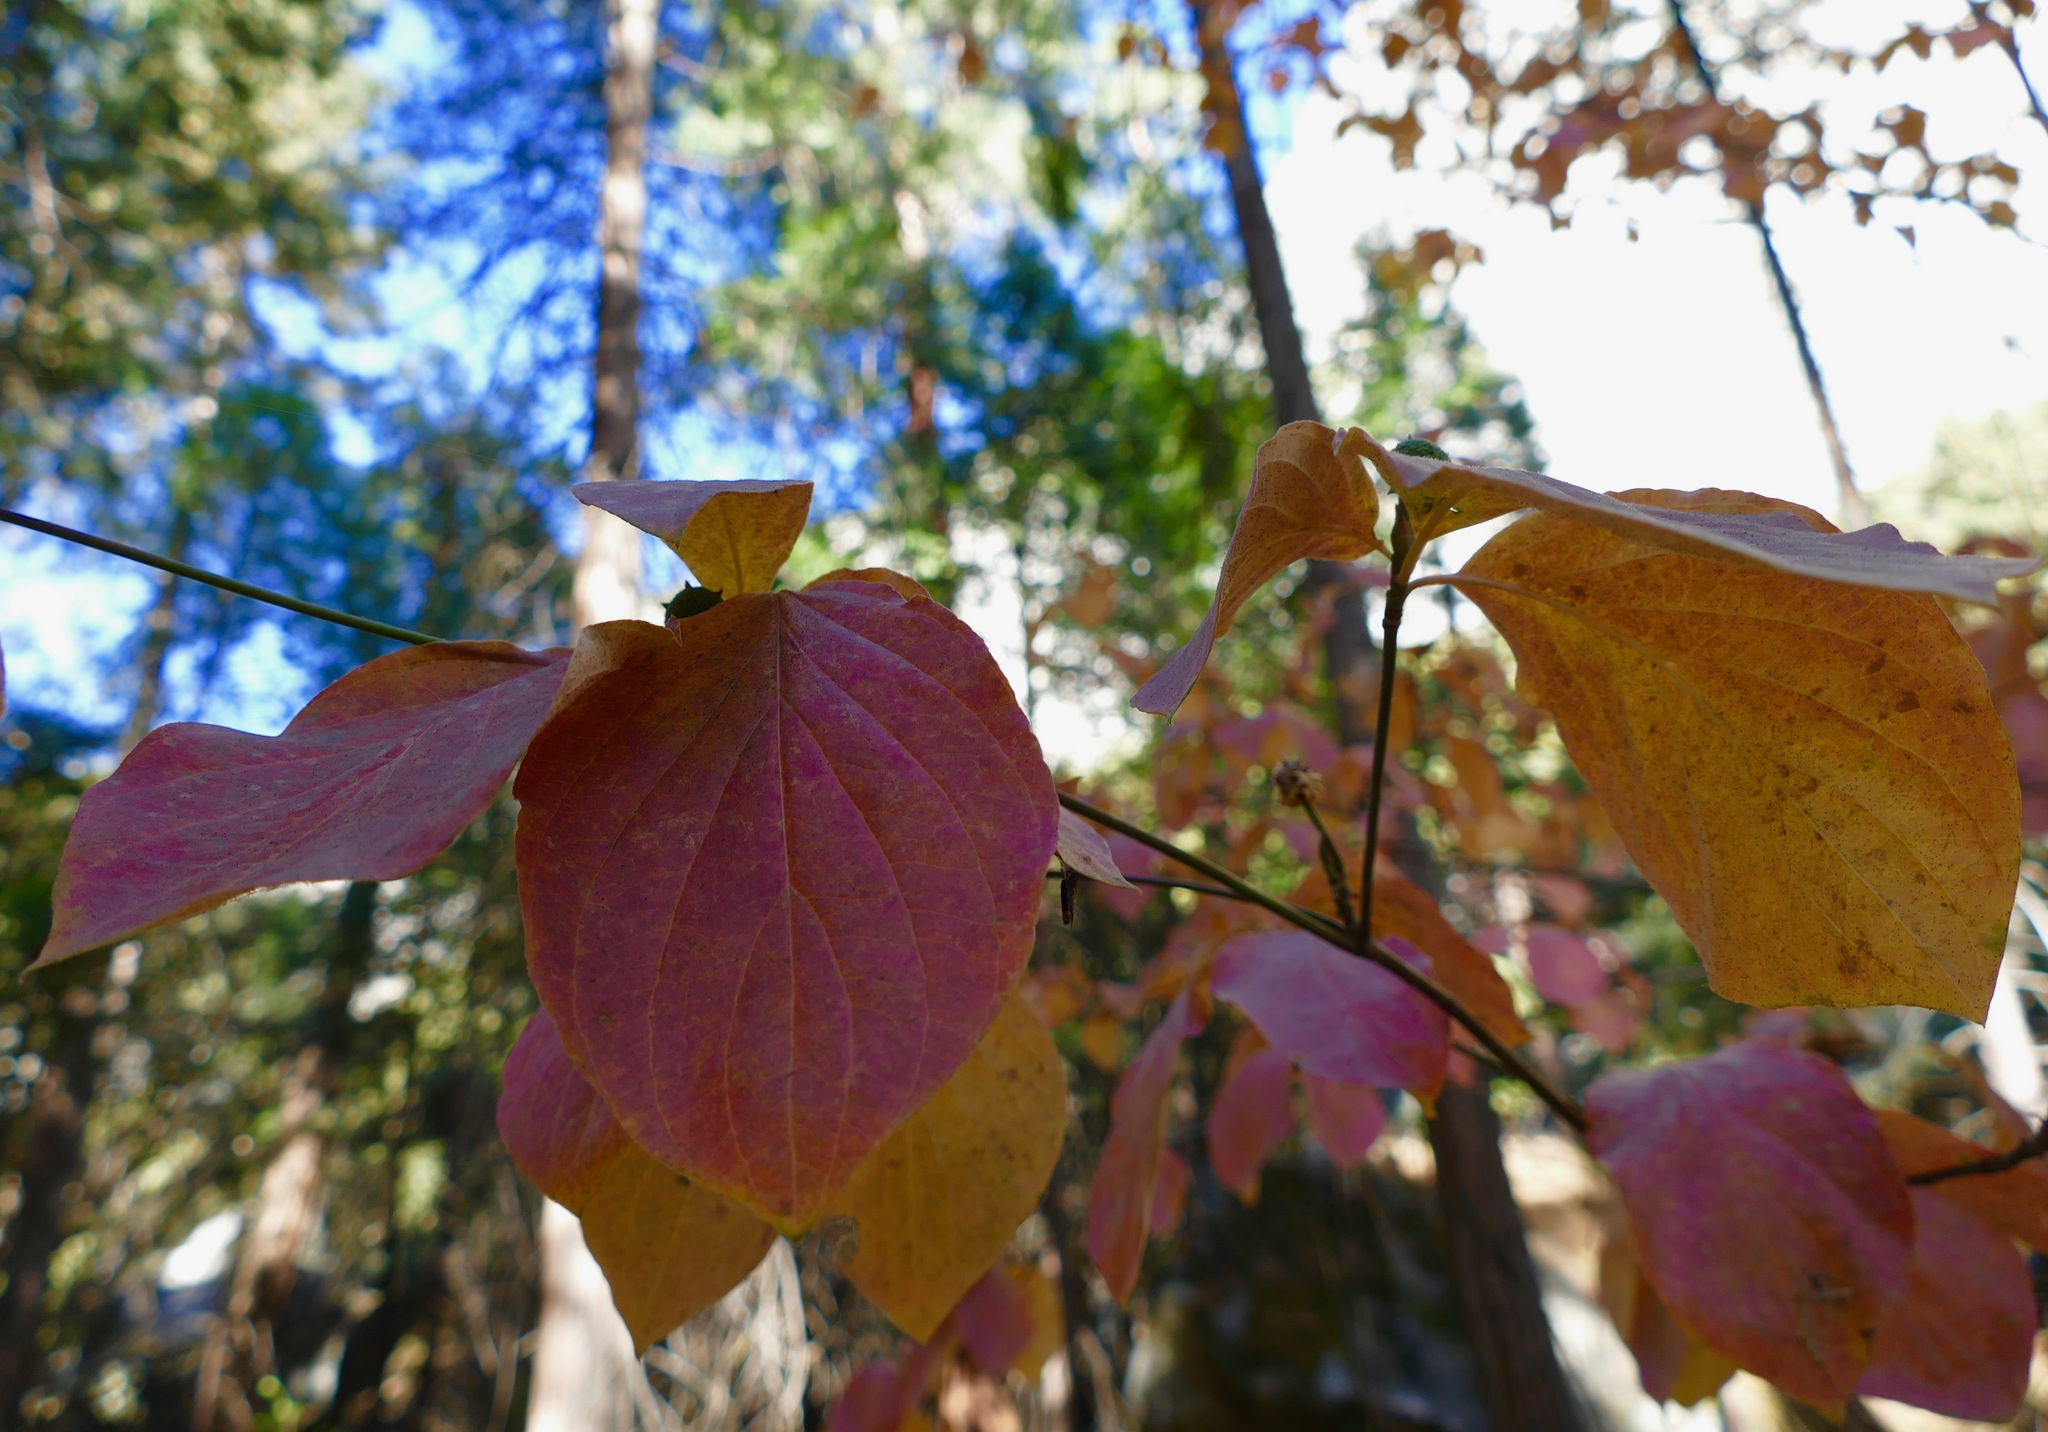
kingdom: Plantae
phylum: Tracheophyta
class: Magnoliopsida
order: Cornales
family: Cornaceae
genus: Cornus
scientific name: Cornus nuttallii
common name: Pacific dogwood
